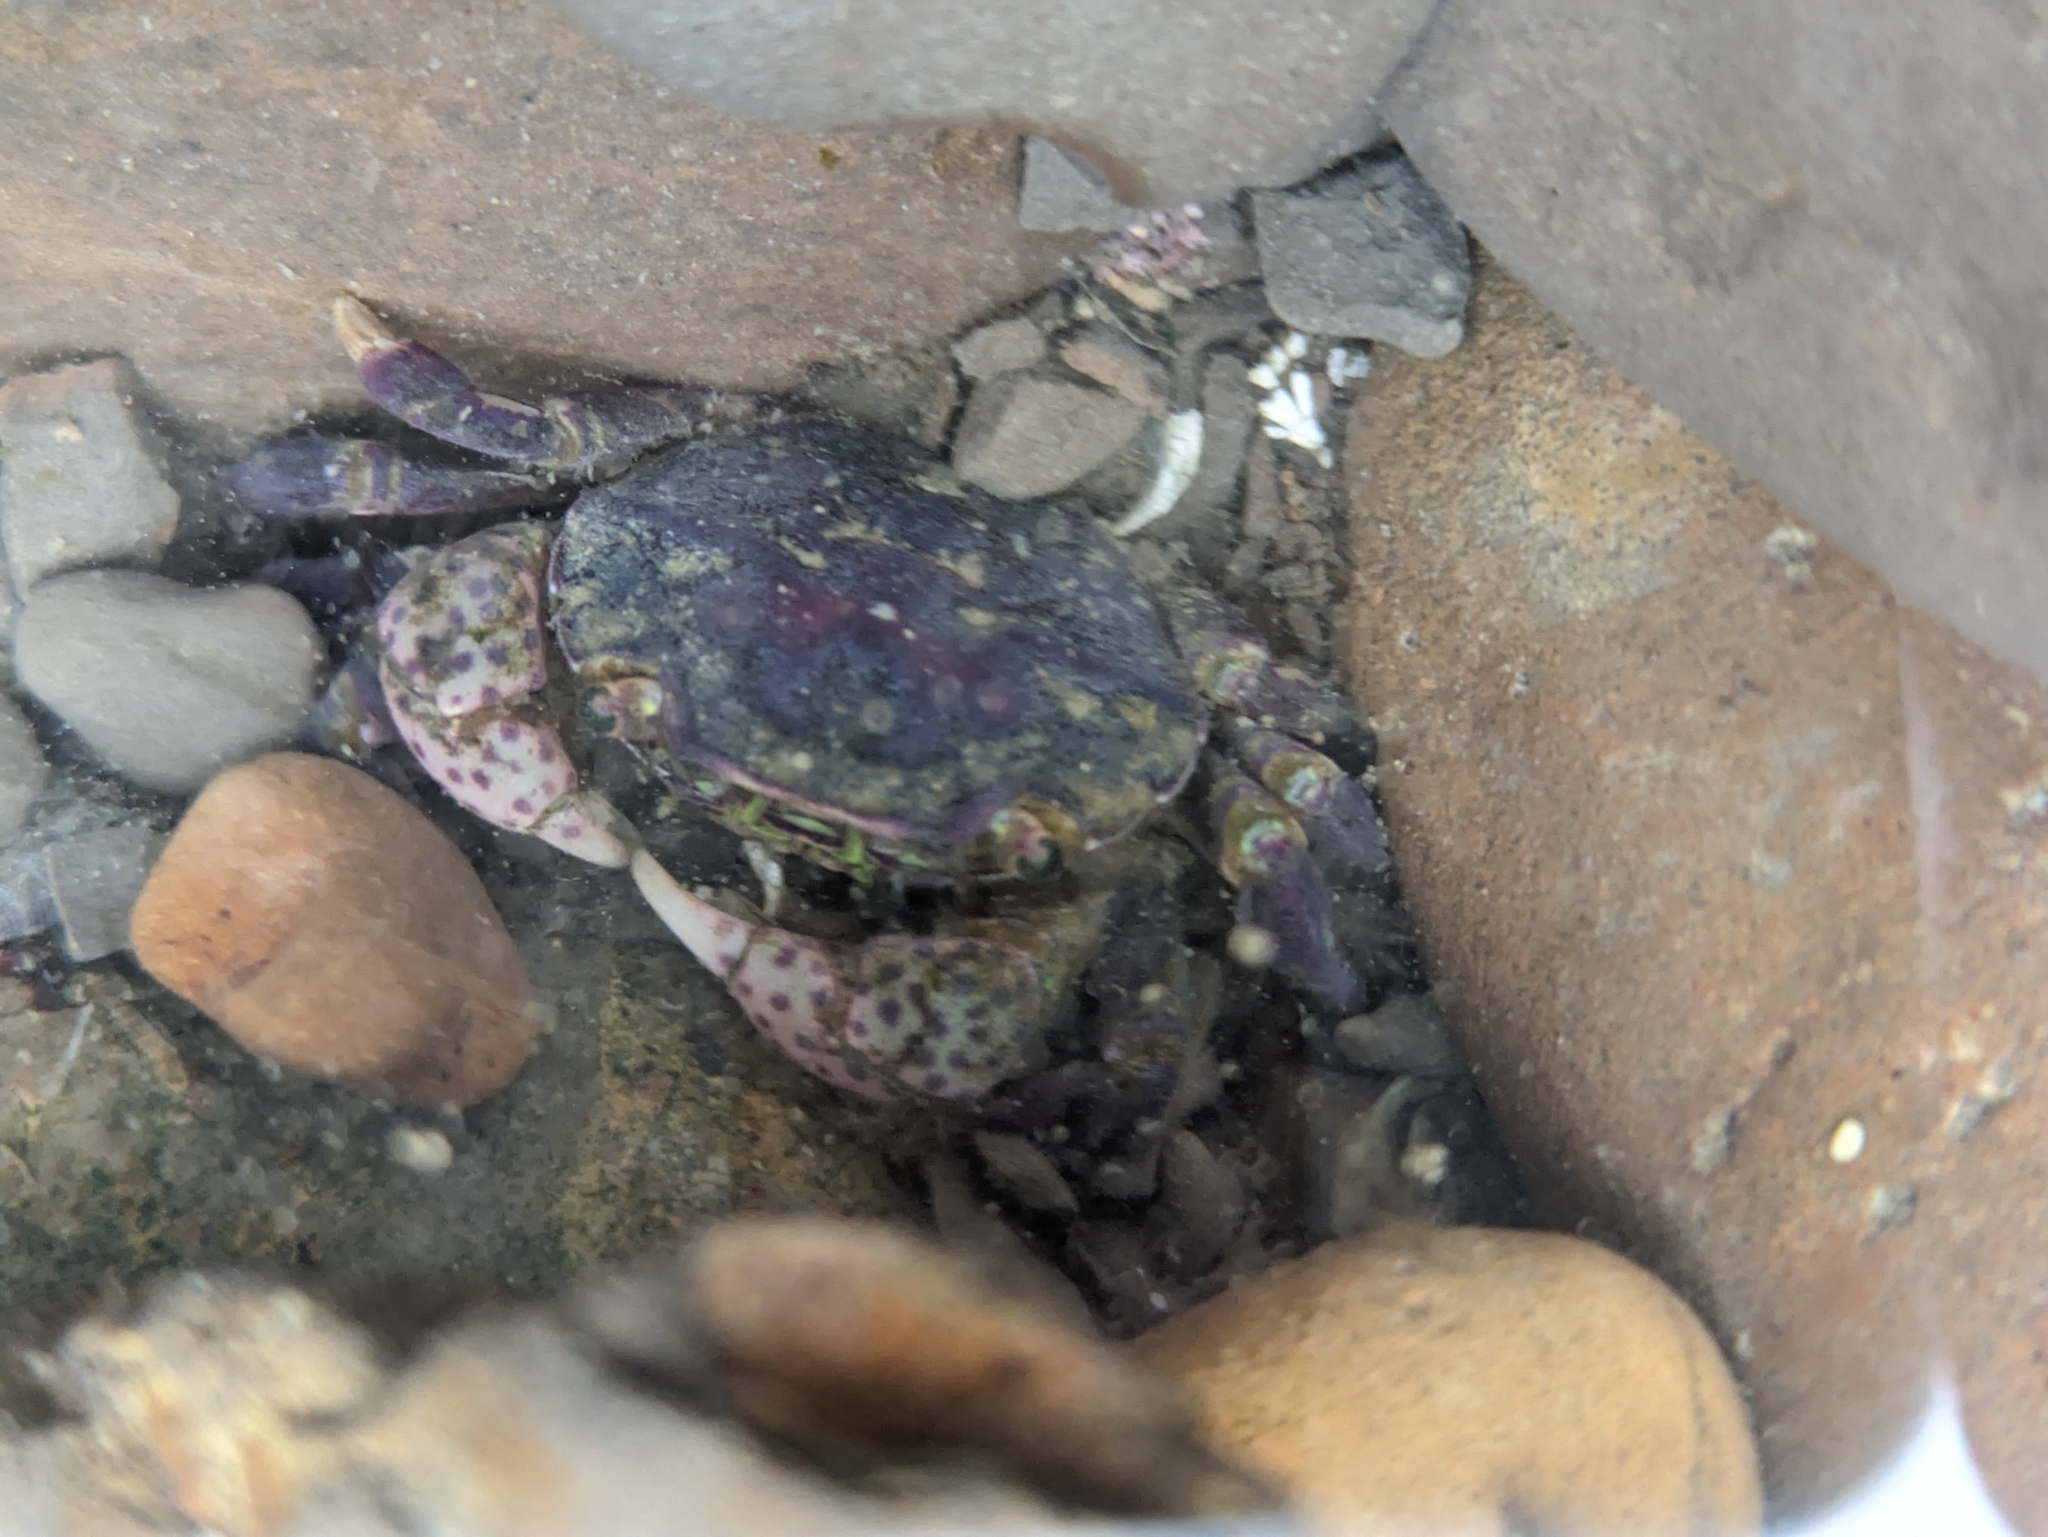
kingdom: Animalia
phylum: Arthropoda
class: Malacostraca
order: Decapoda
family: Varunidae
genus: Hemigrapsus
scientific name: Hemigrapsus nudus
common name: Purple shore crab
